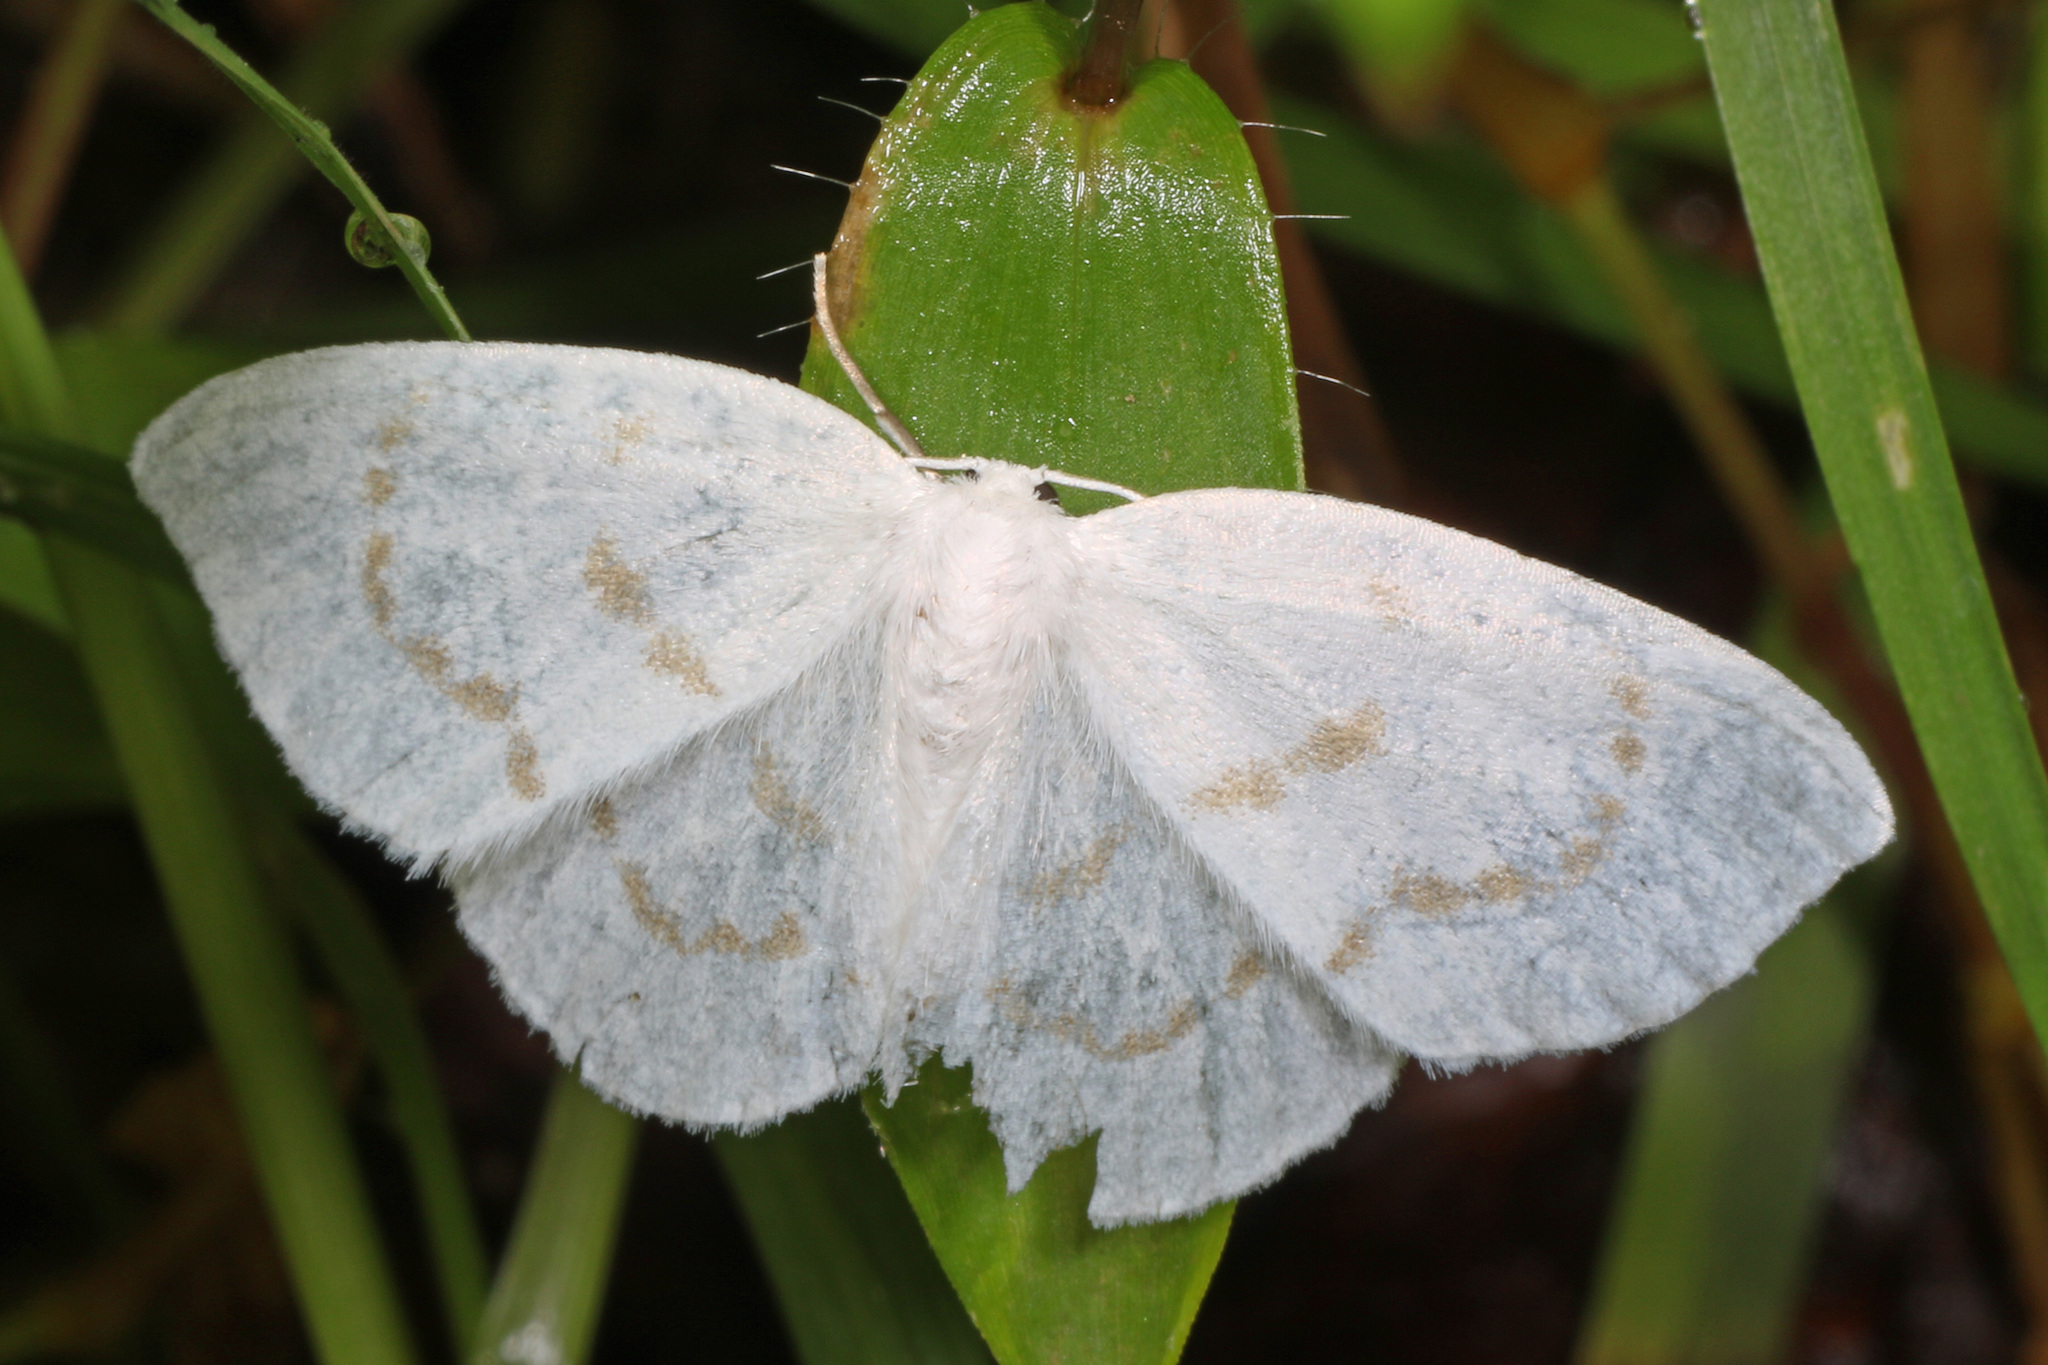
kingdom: Animalia
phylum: Arthropoda
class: Insecta
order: Lepidoptera
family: Drepanidae
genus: Eudeilinia
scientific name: Eudeilinia herminiata
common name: Northern eudeilinea moth
